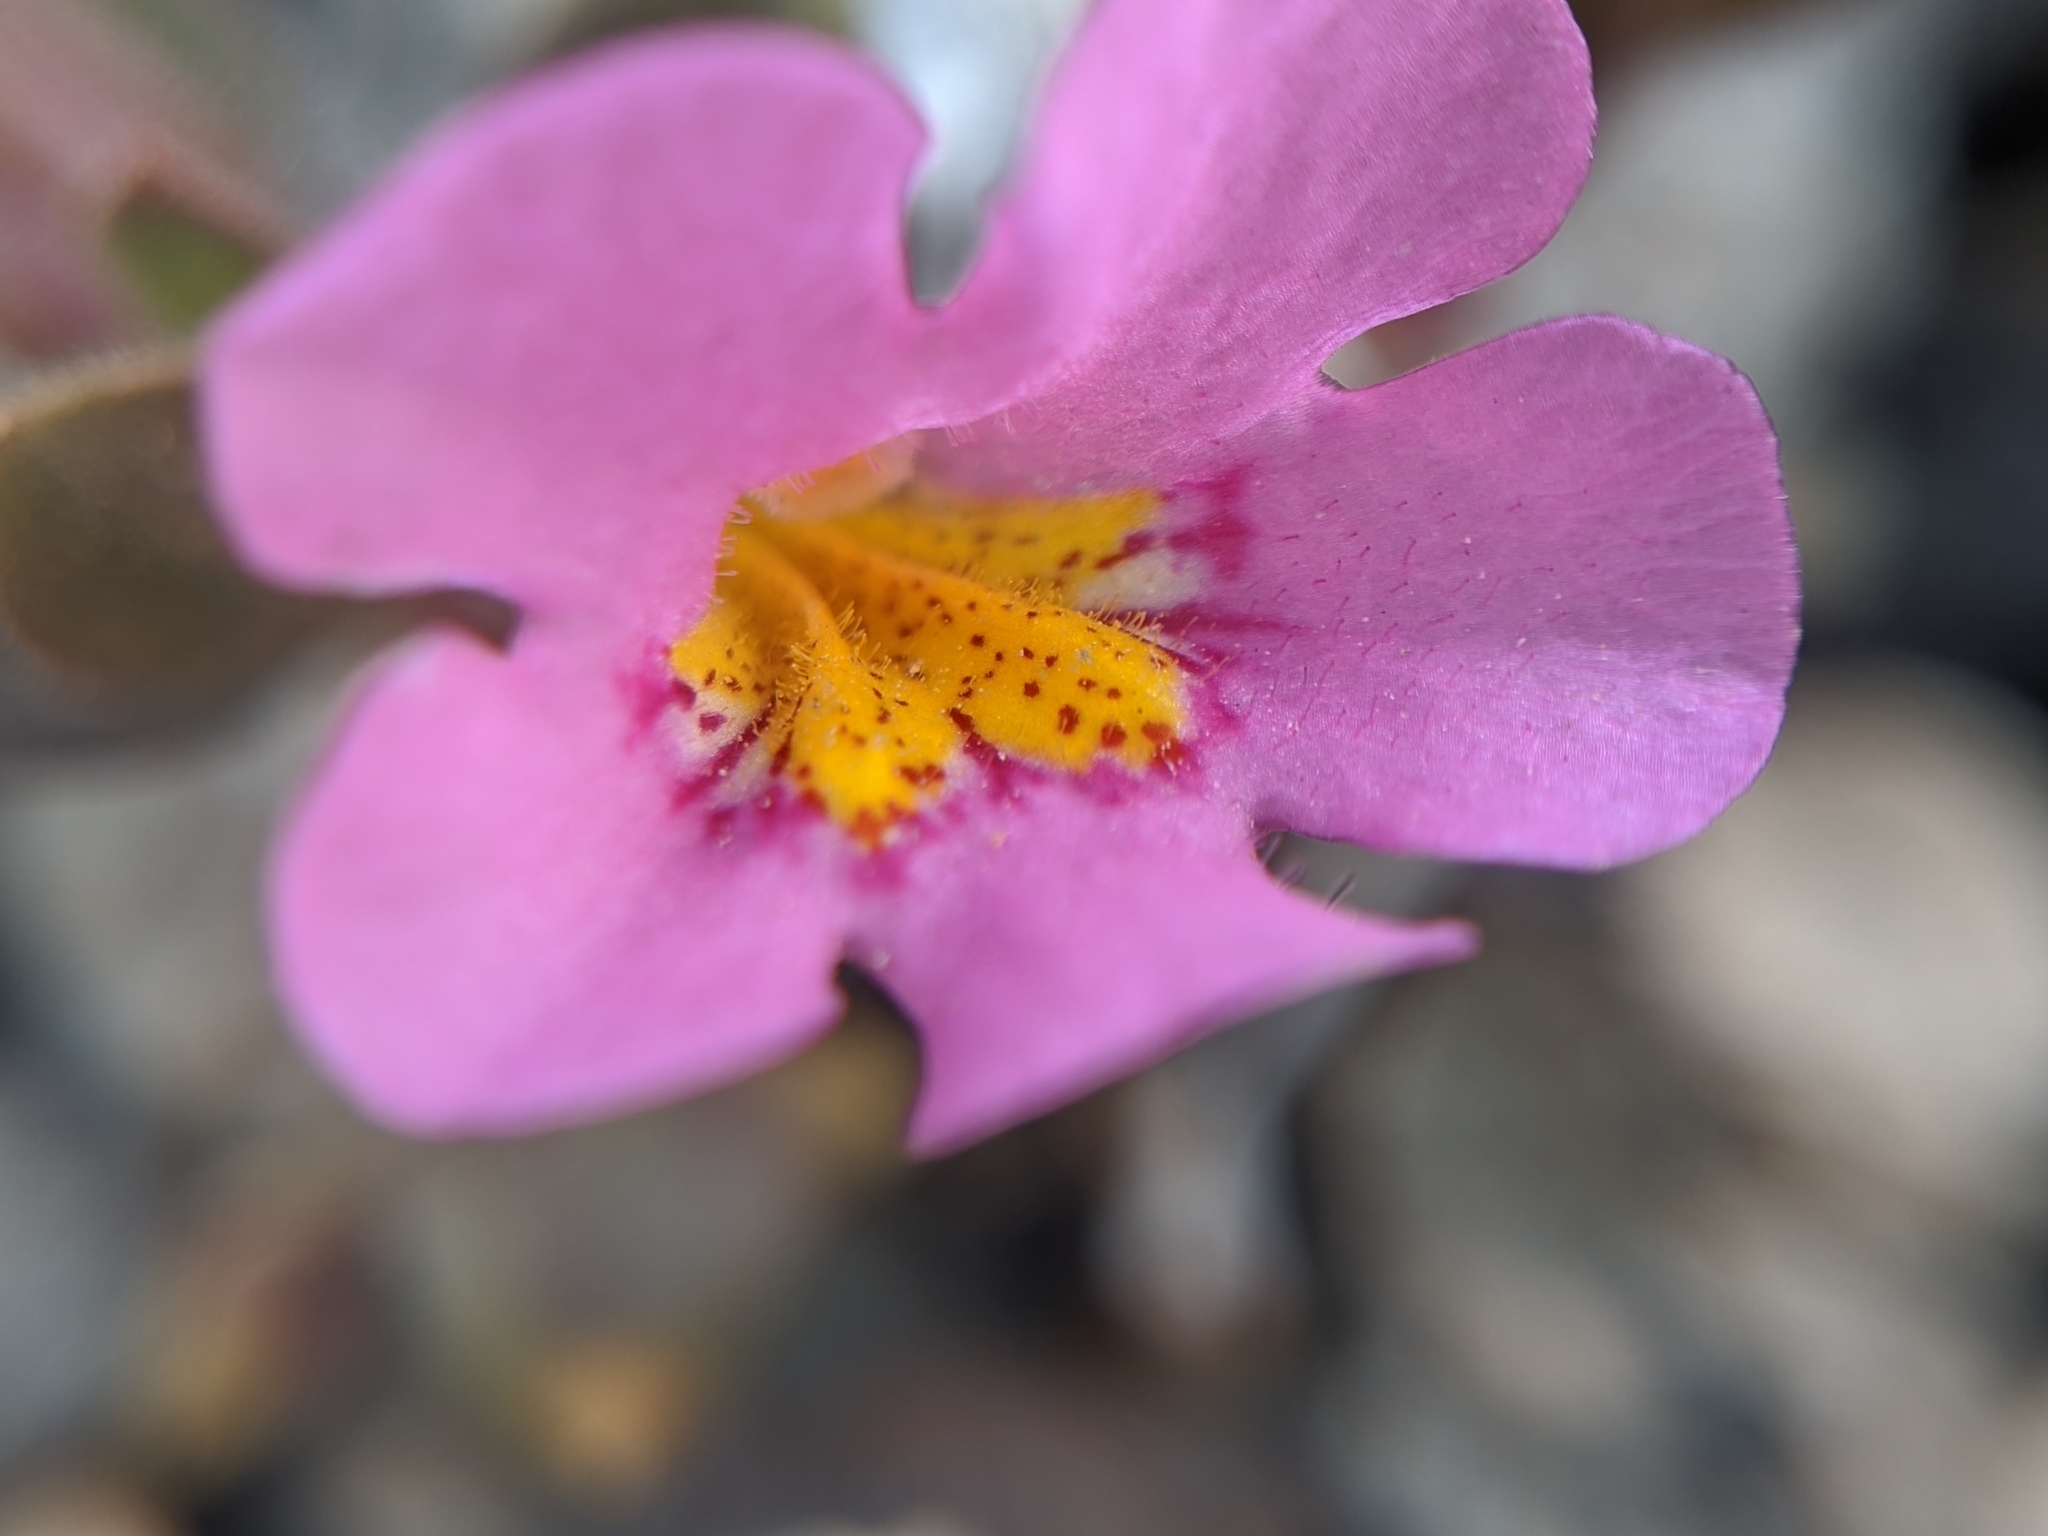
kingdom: Plantae
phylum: Tracheophyta
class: Magnoliopsida
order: Lamiales
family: Phrymaceae
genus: Diplacus
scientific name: Diplacus bigelovii
